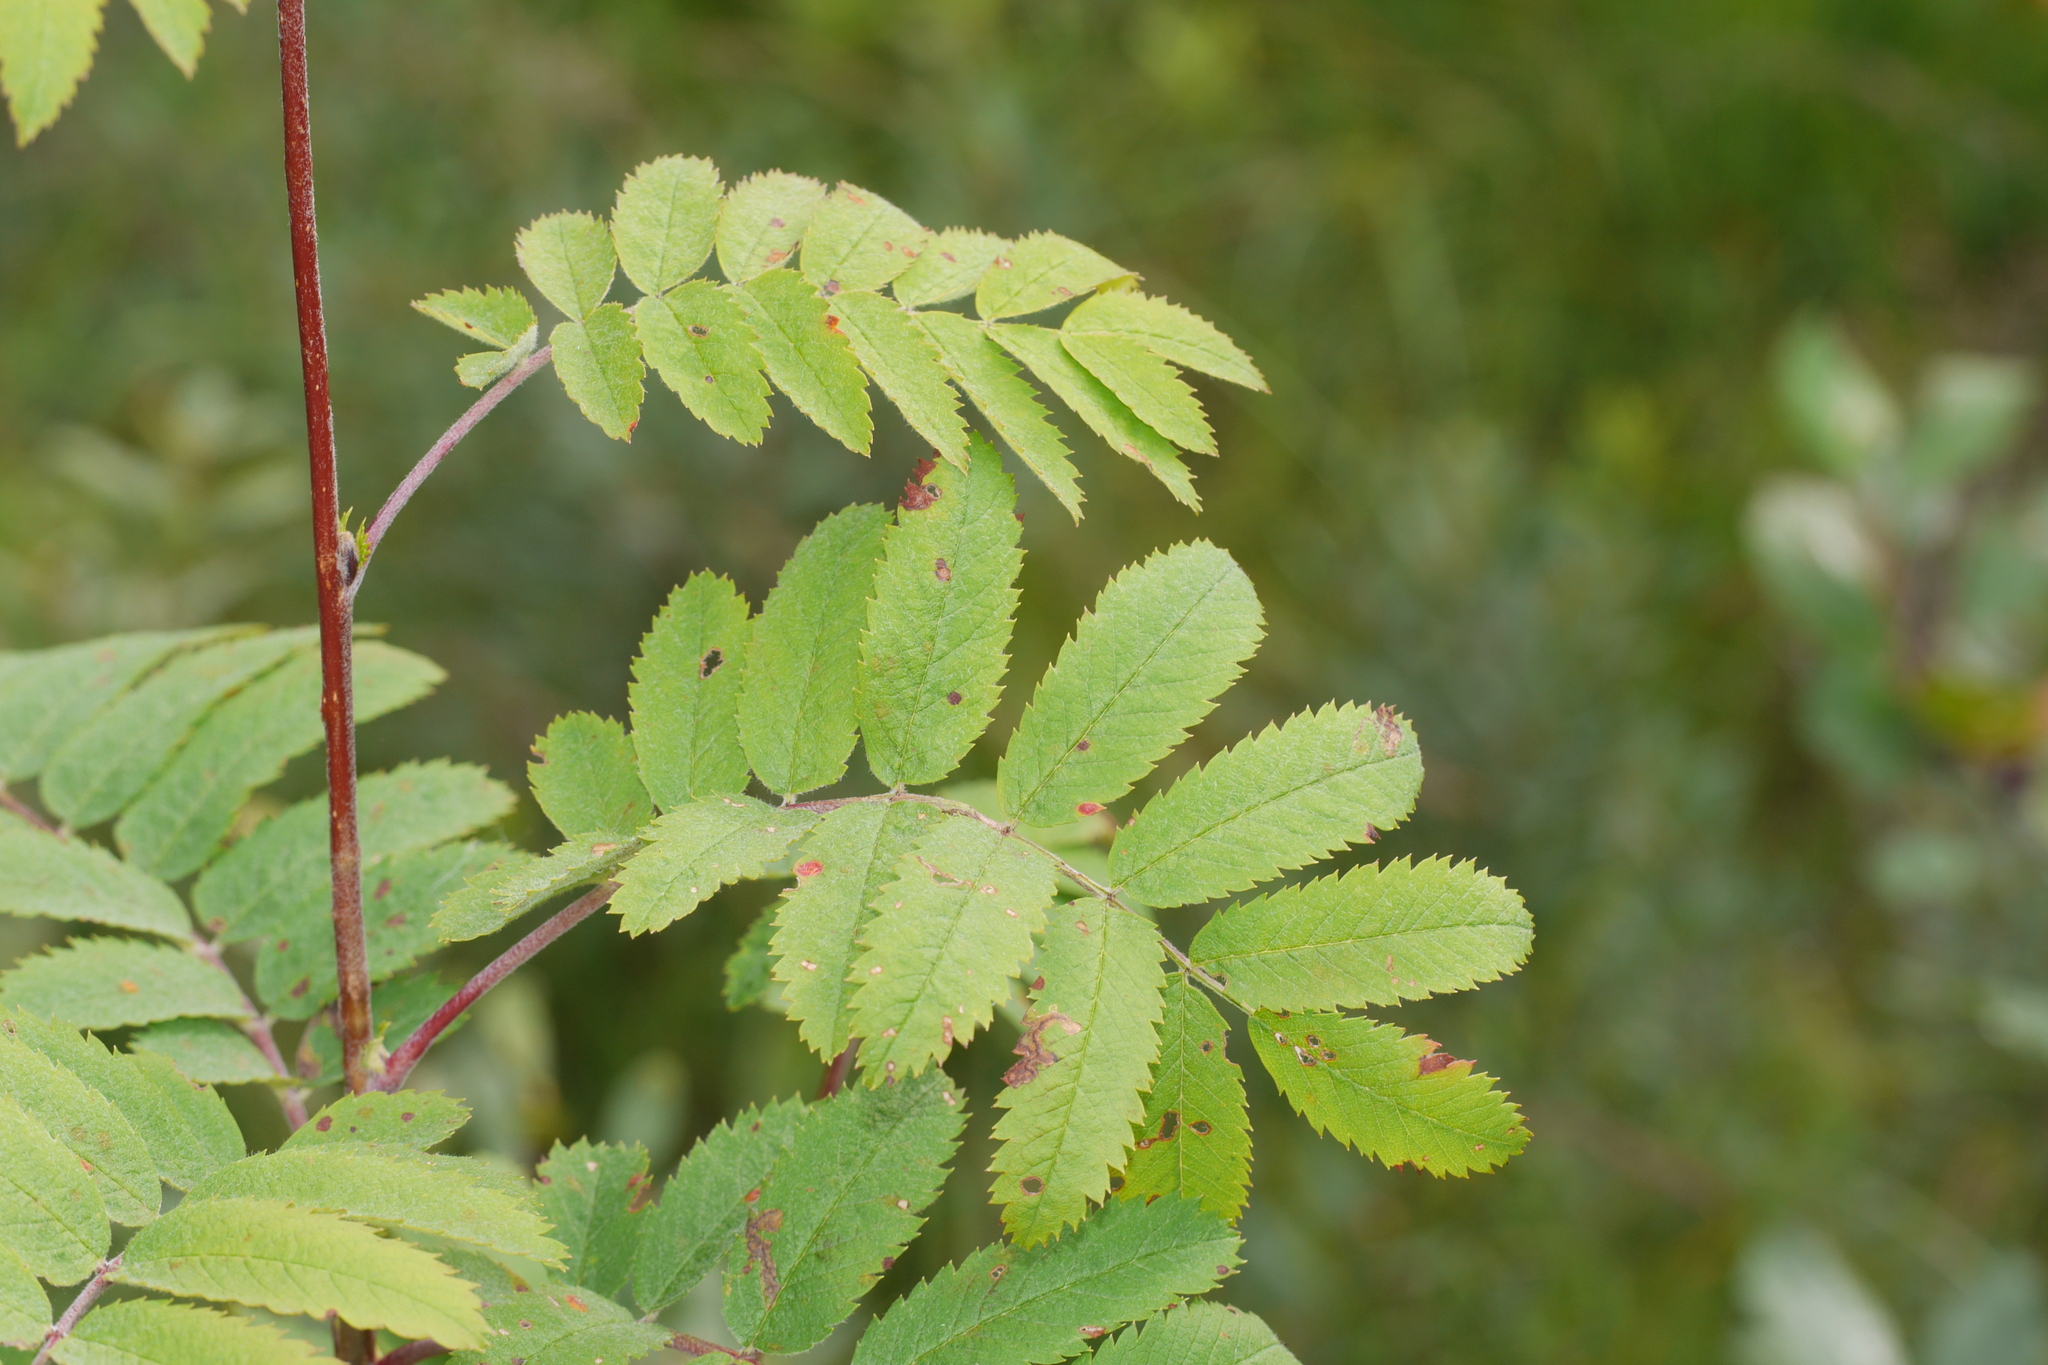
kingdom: Plantae
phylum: Tracheophyta
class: Magnoliopsida
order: Rosales
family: Rosaceae
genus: Sorbus
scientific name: Sorbus aucuparia
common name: Rowan
